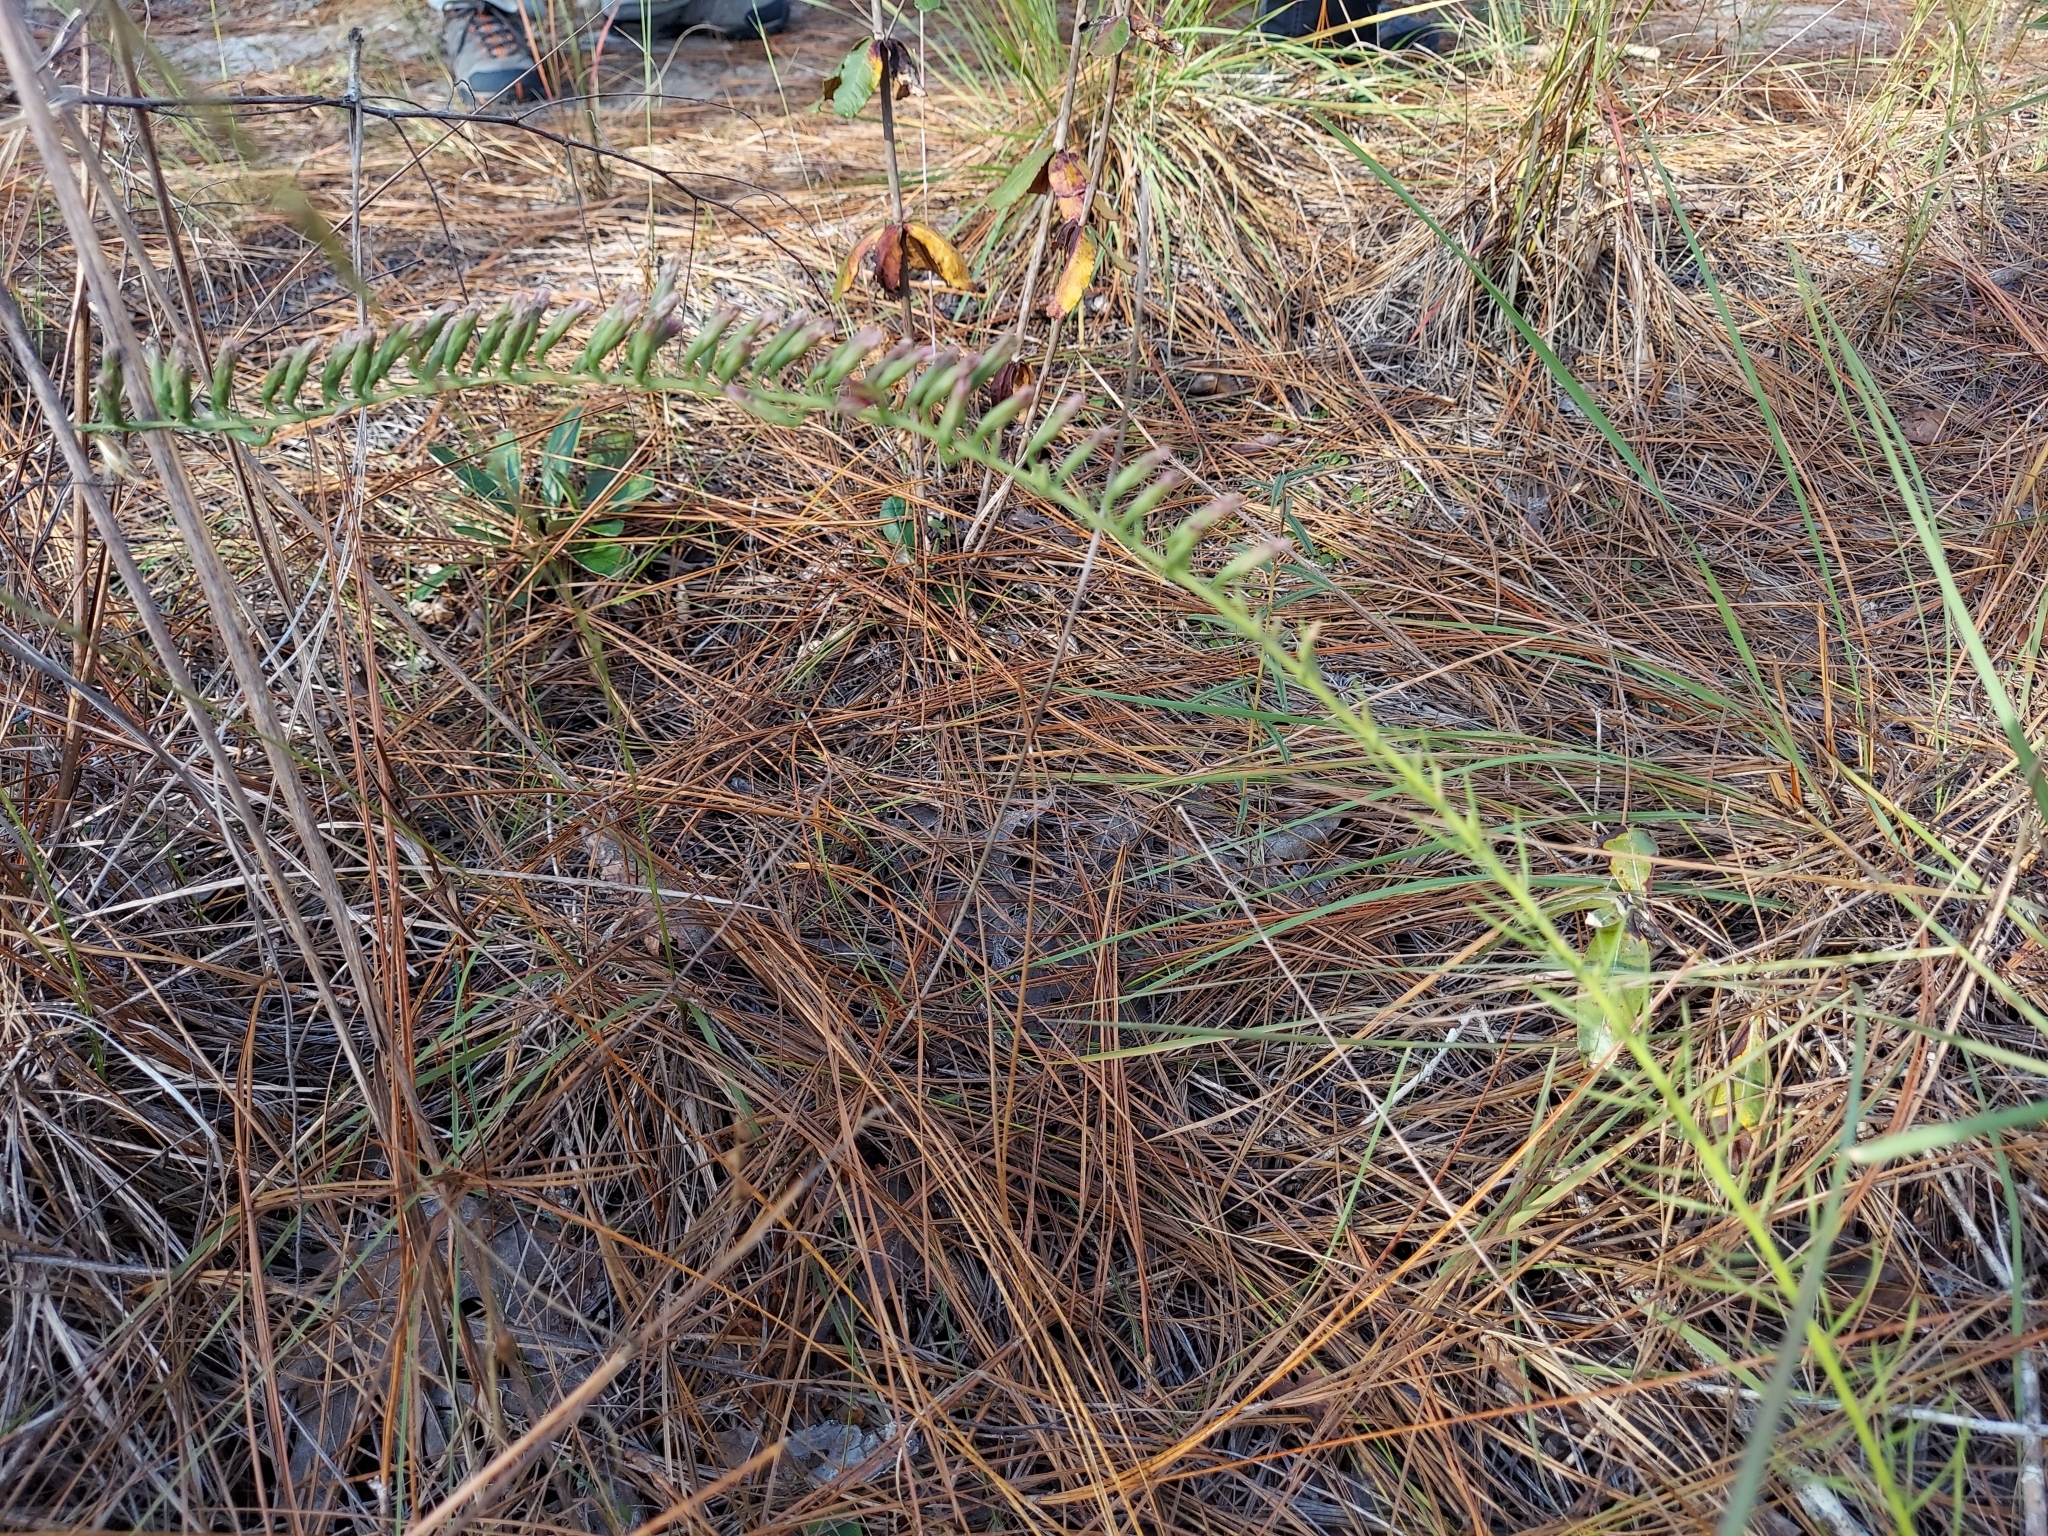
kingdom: Plantae
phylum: Tracheophyta
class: Magnoliopsida
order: Asterales
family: Asteraceae
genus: Liatris
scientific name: Liatris pauciflora
